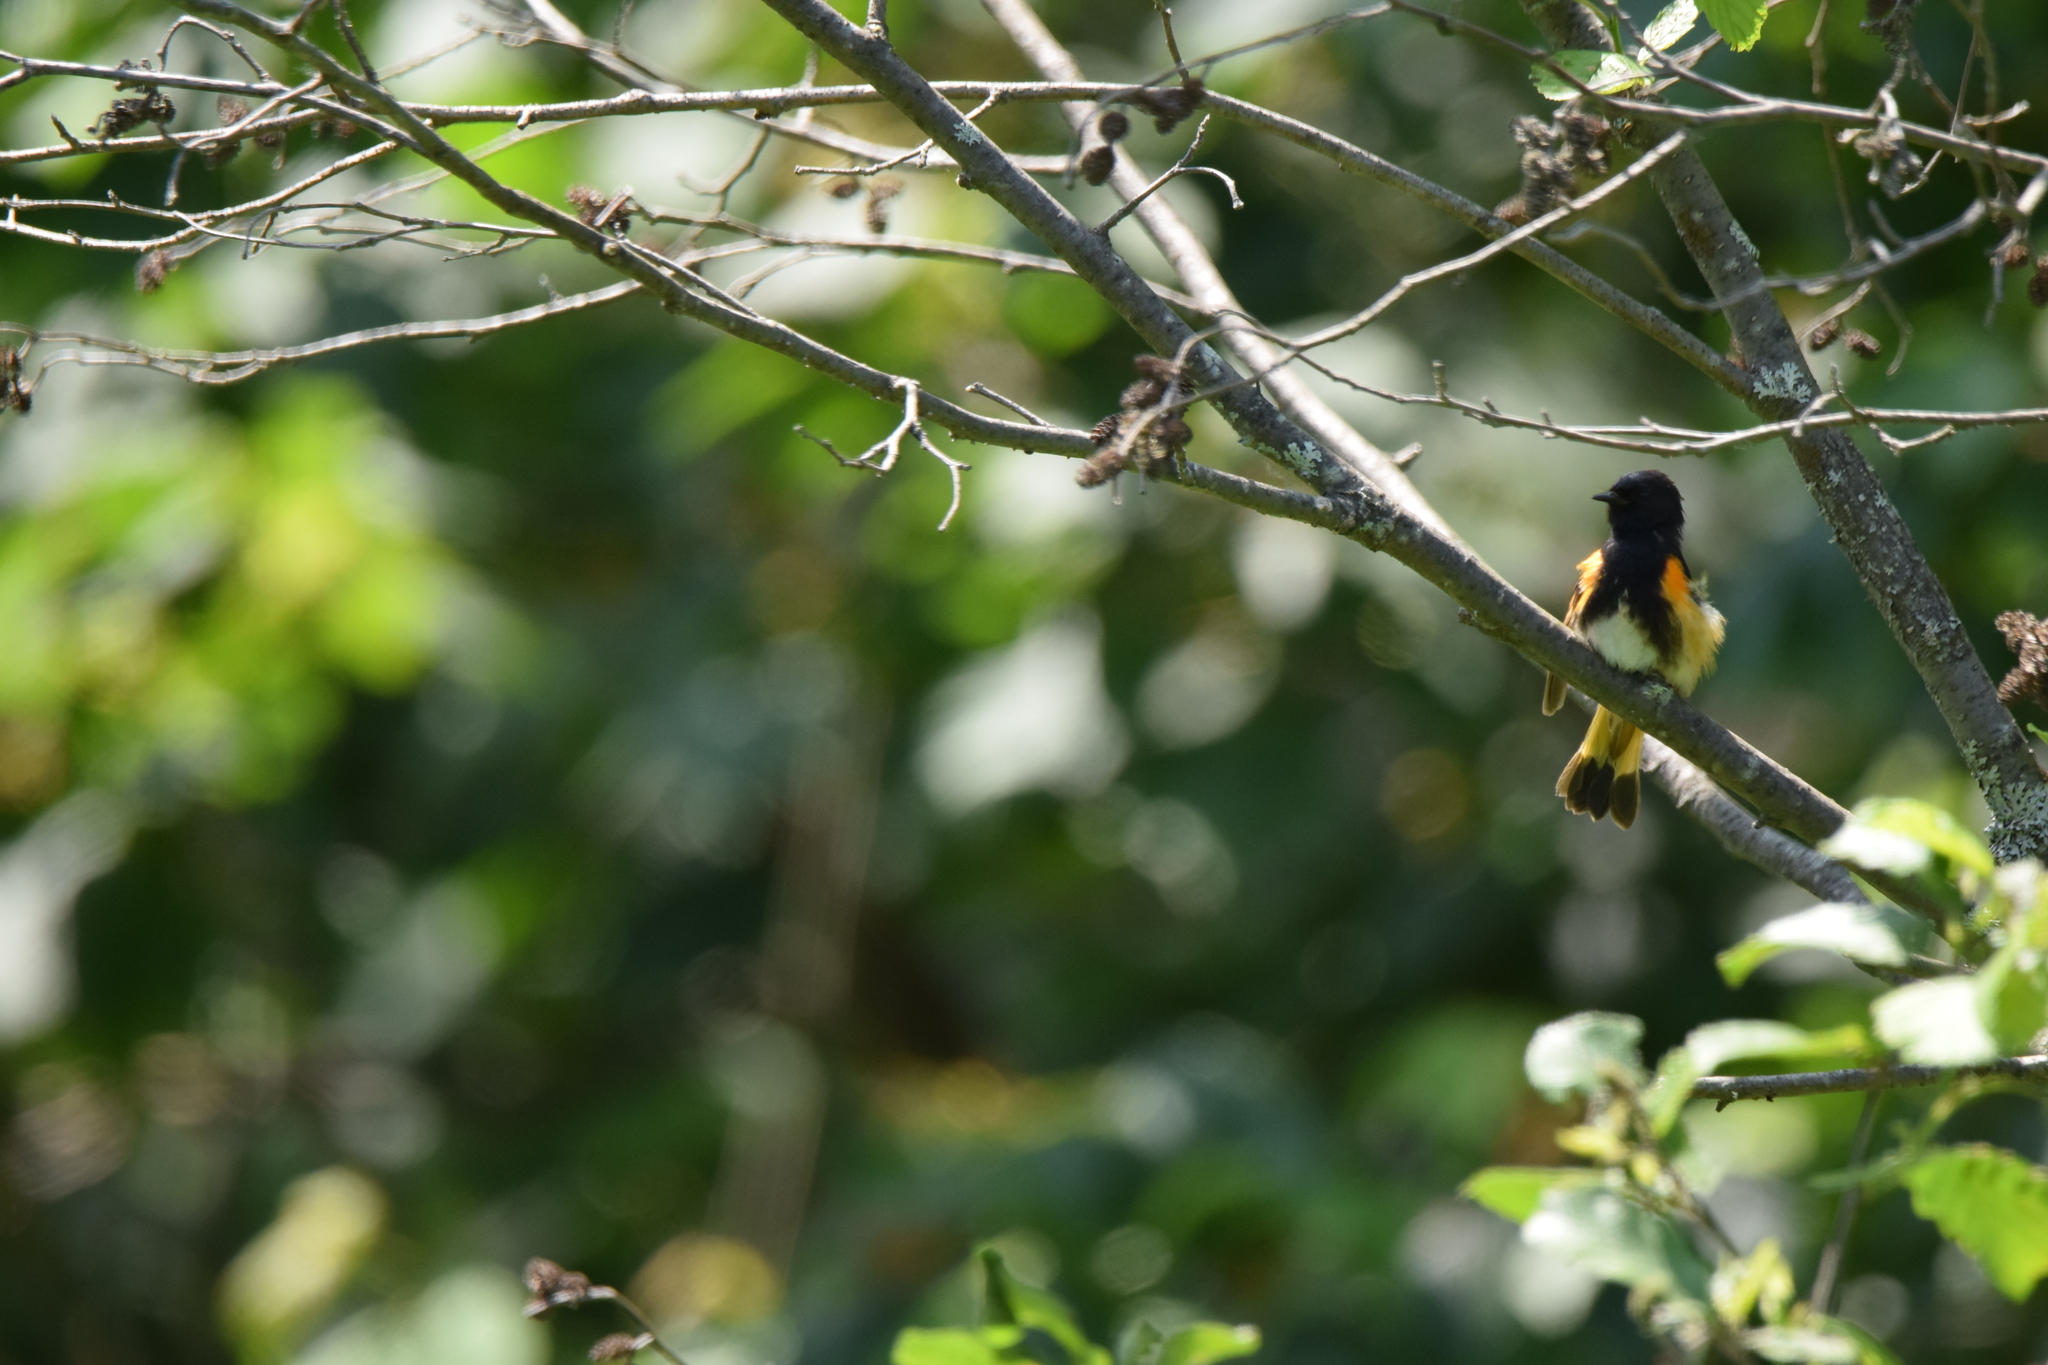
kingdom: Animalia
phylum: Chordata
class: Aves
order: Passeriformes
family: Parulidae
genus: Setophaga
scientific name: Setophaga ruticilla
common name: American redstart
